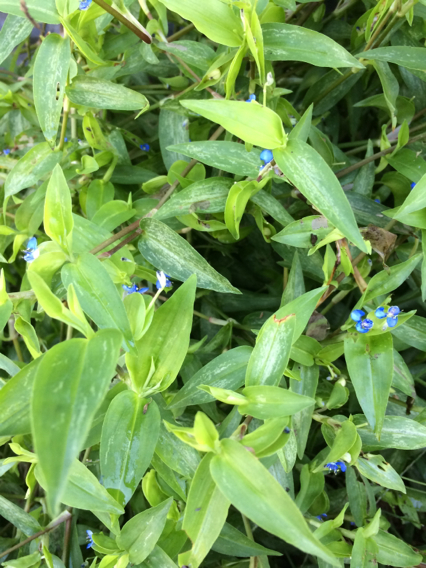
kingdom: Plantae
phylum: Tracheophyta
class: Liliopsida
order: Commelinales
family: Commelinaceae
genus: Commelina
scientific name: Commelina diffusa
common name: Climbing dayflower
